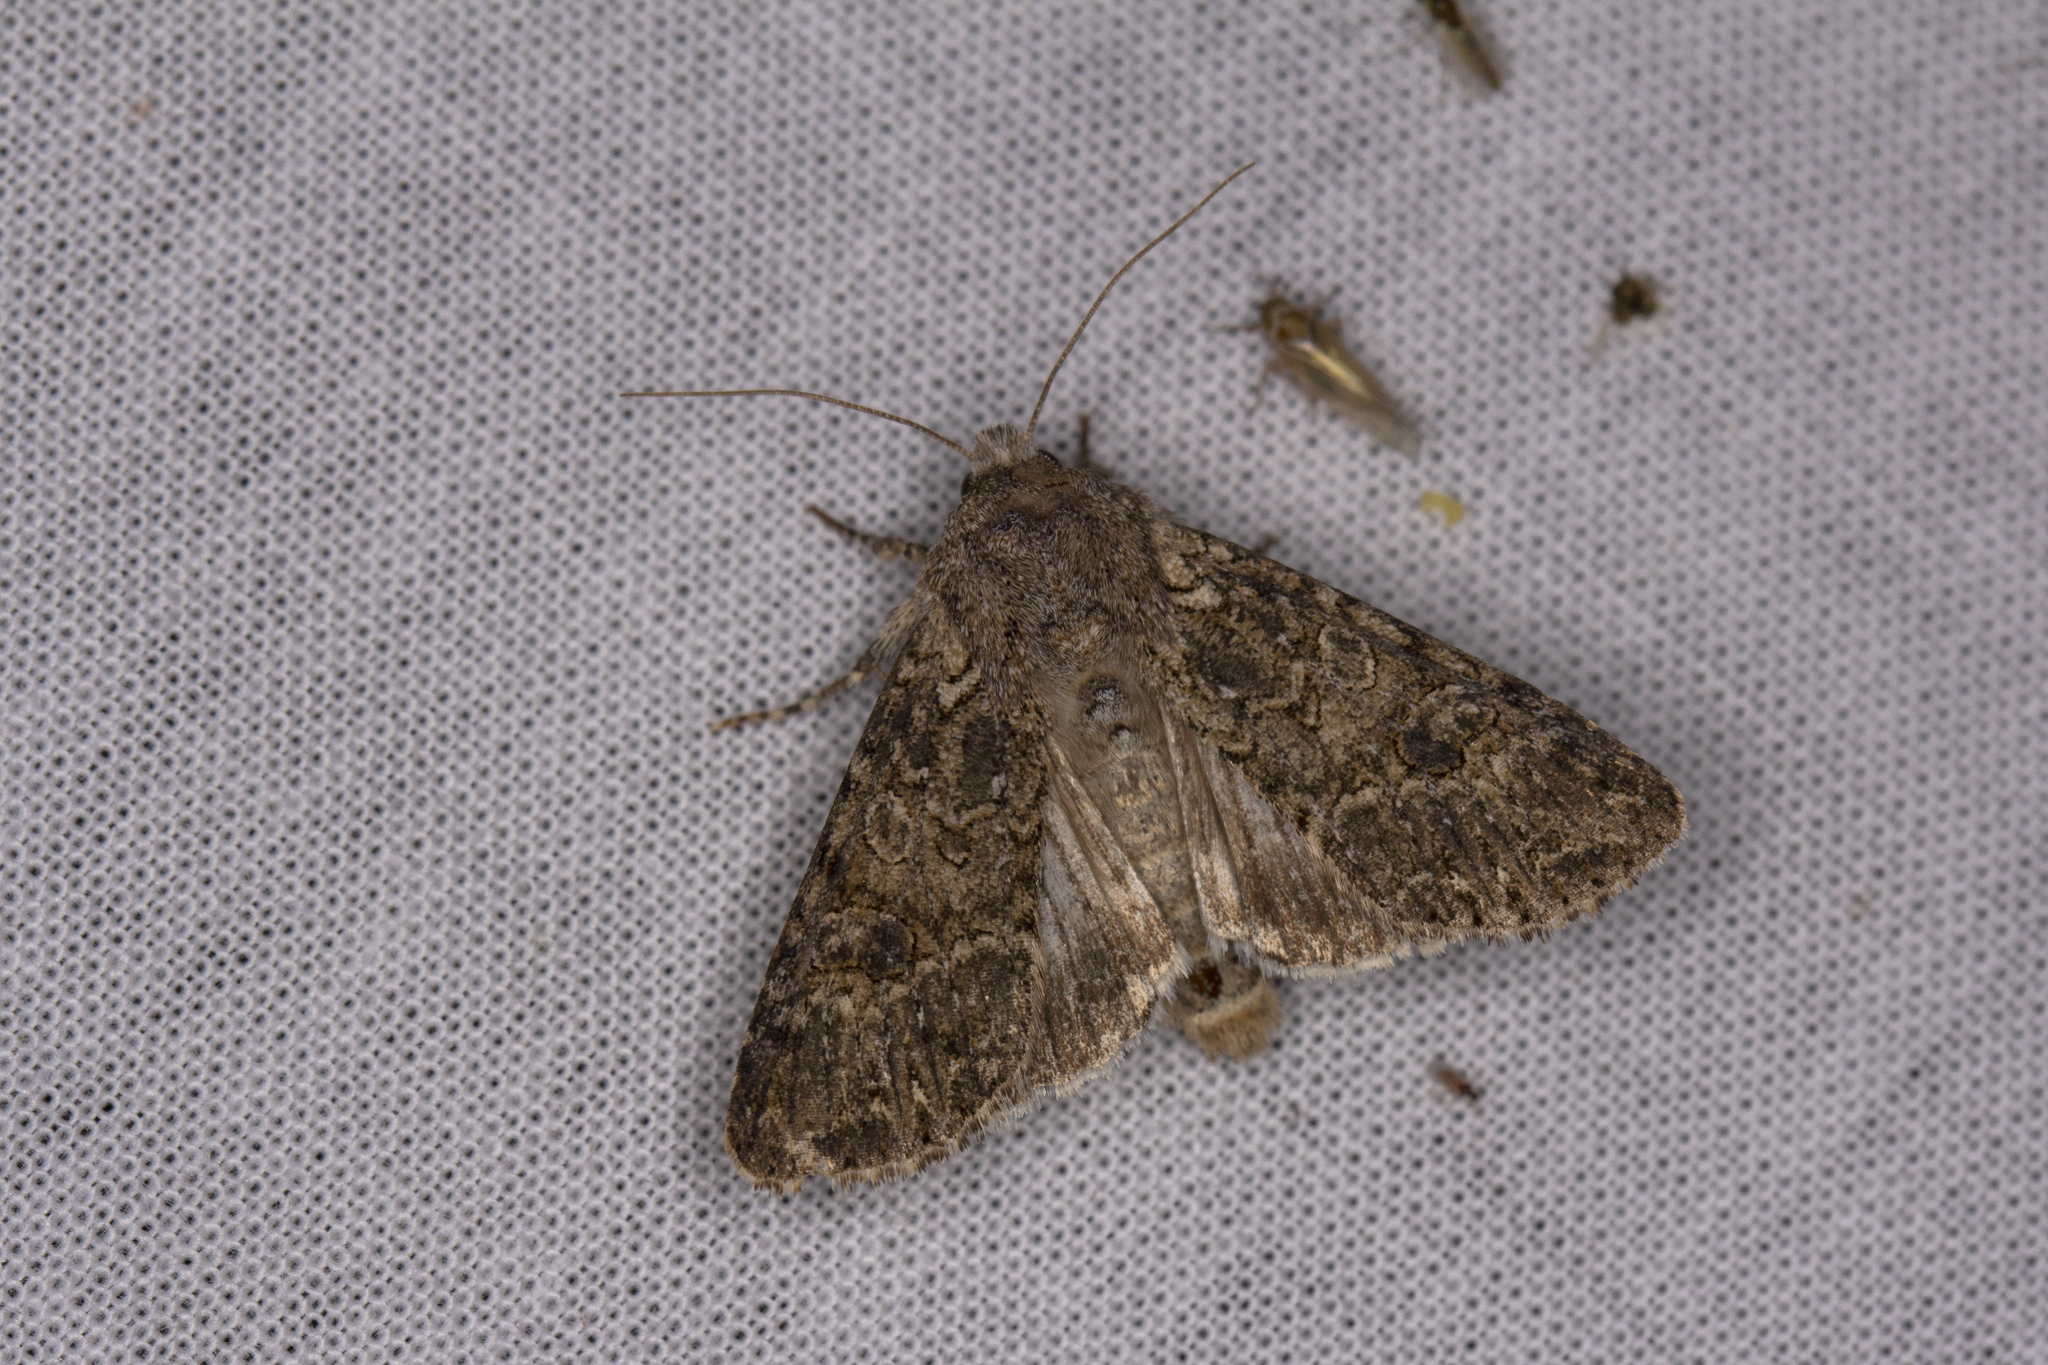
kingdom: Animalia
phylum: Arthropoda
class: Insecta
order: Lepidoptera
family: Noctuidae
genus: Anarta
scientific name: Anarta trifolii
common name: Clover cutworm moth
